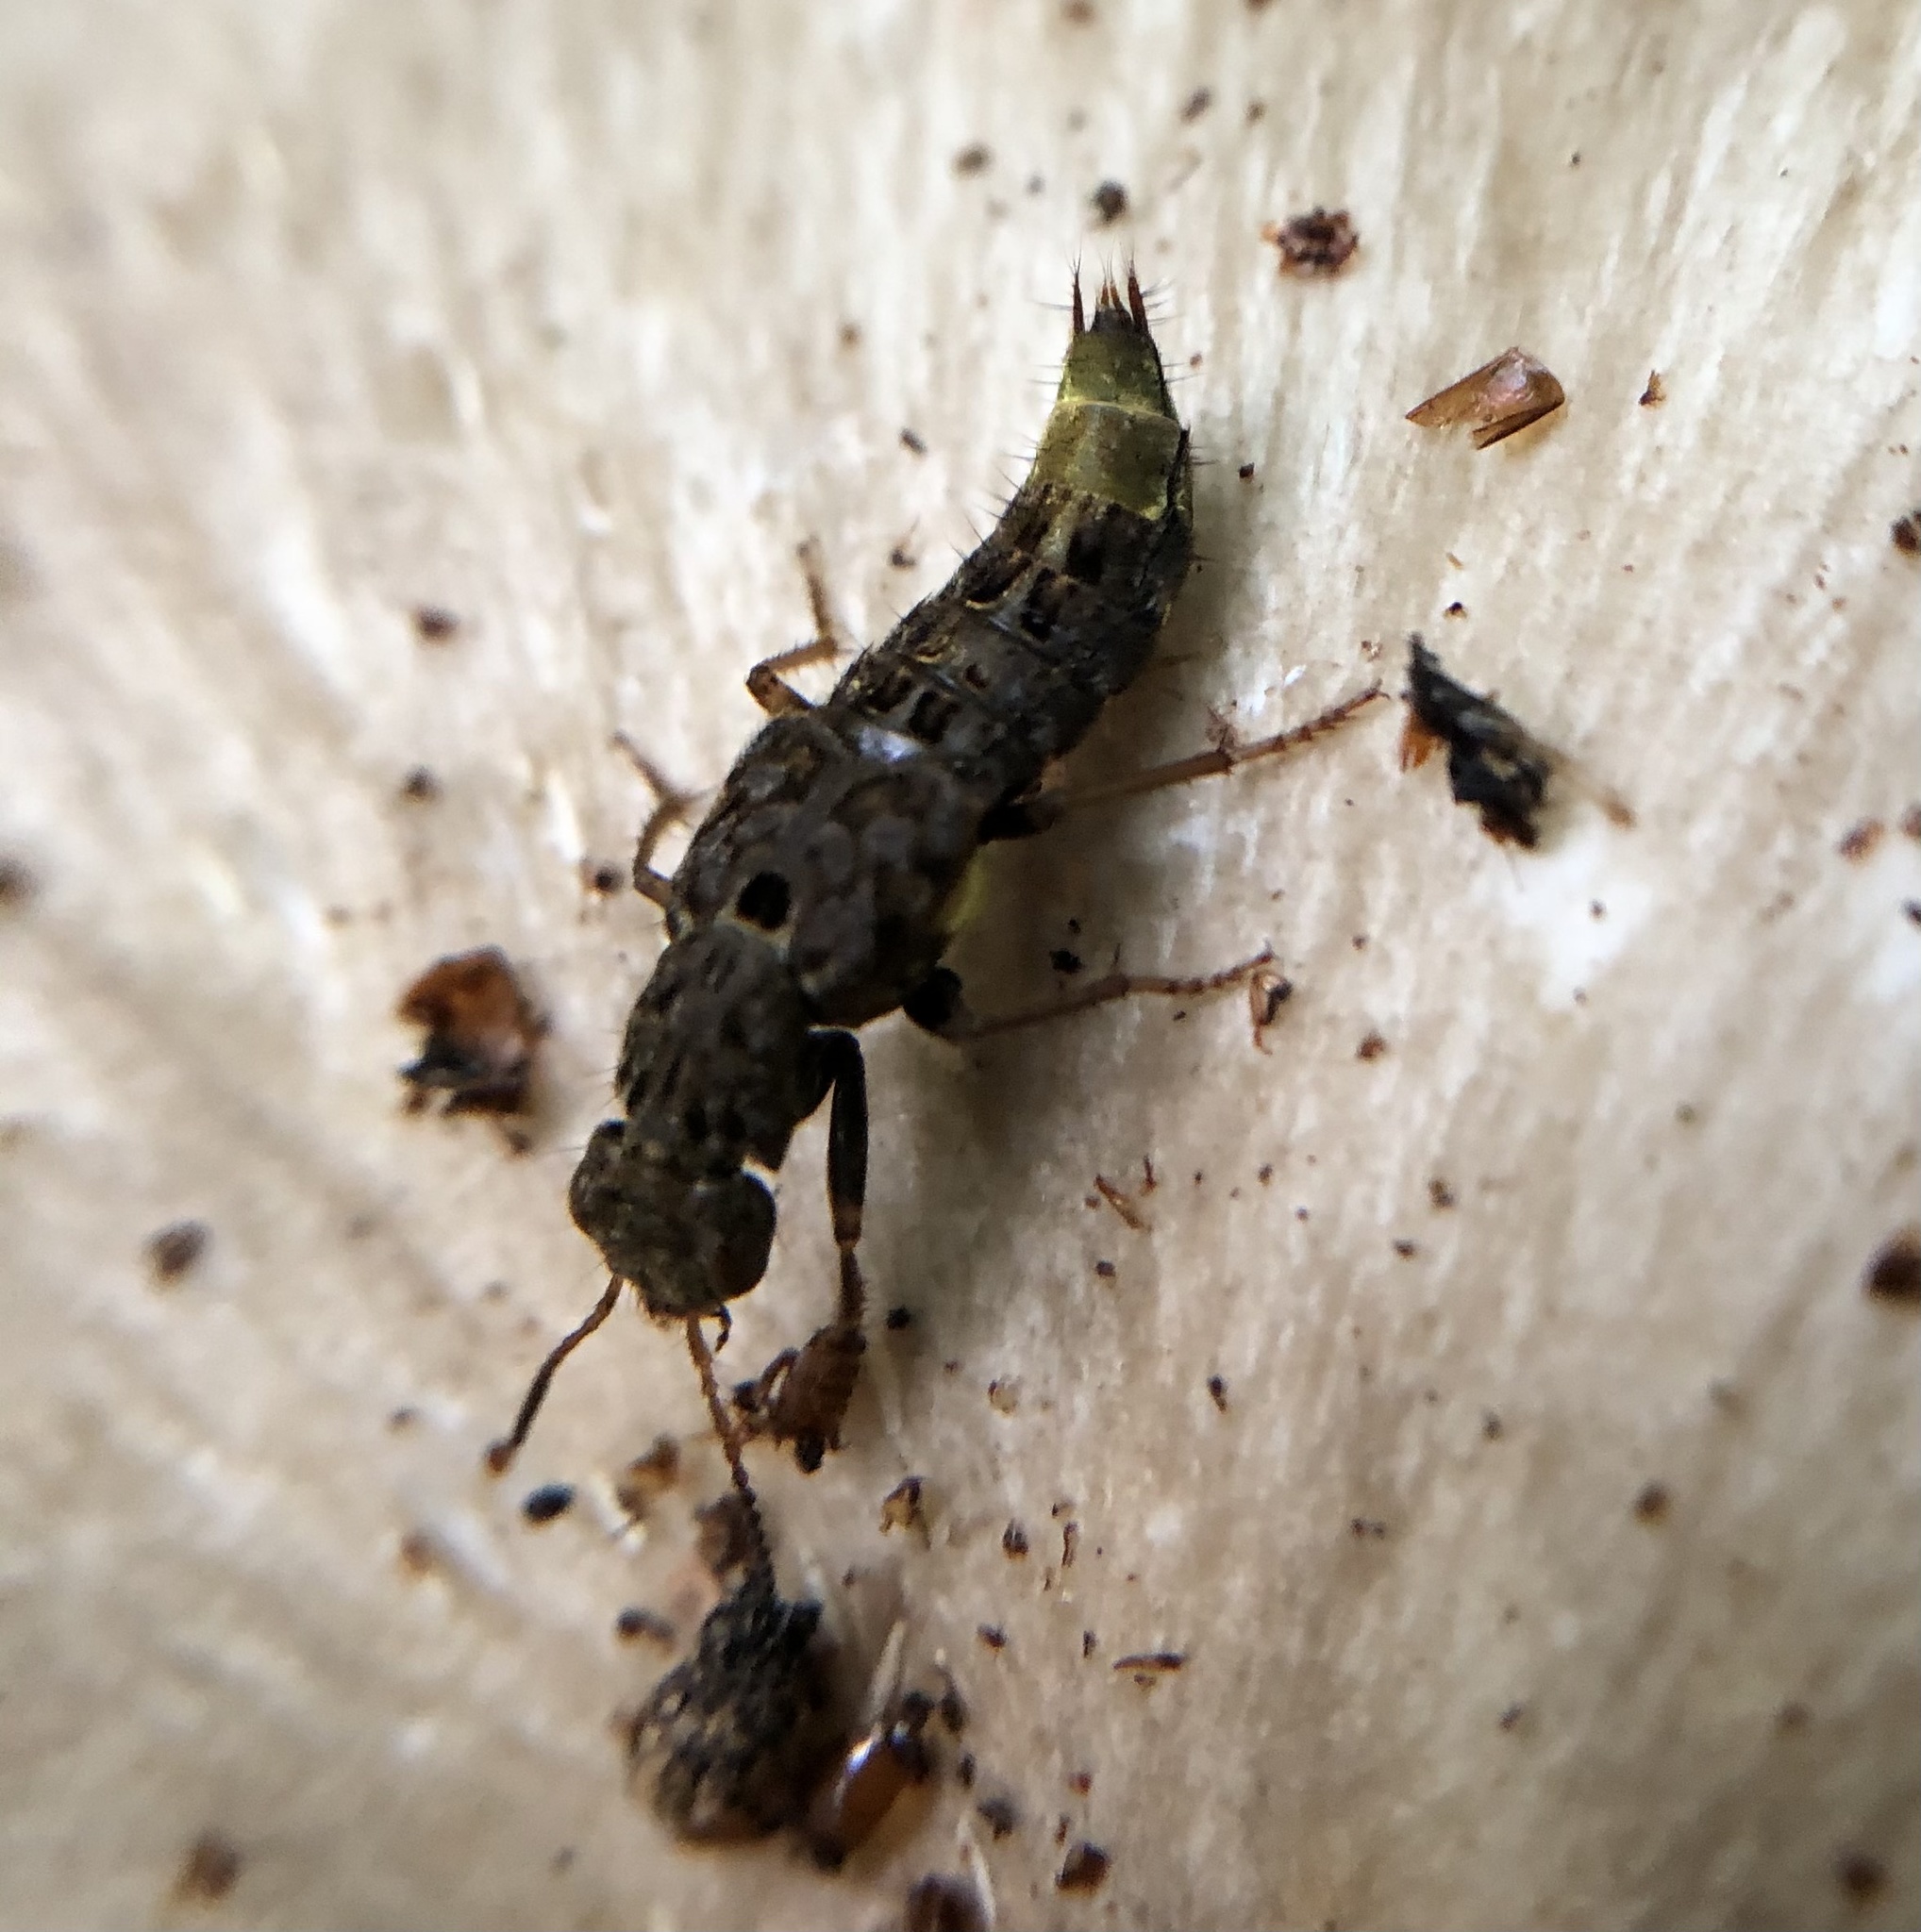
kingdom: Animalia
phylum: Arthropoda
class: Insecta
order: Coleoptera
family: Staphylinidae
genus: Ontholestes
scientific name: Ontholestes cingulatus
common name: Gold-and-brown rove beetle
